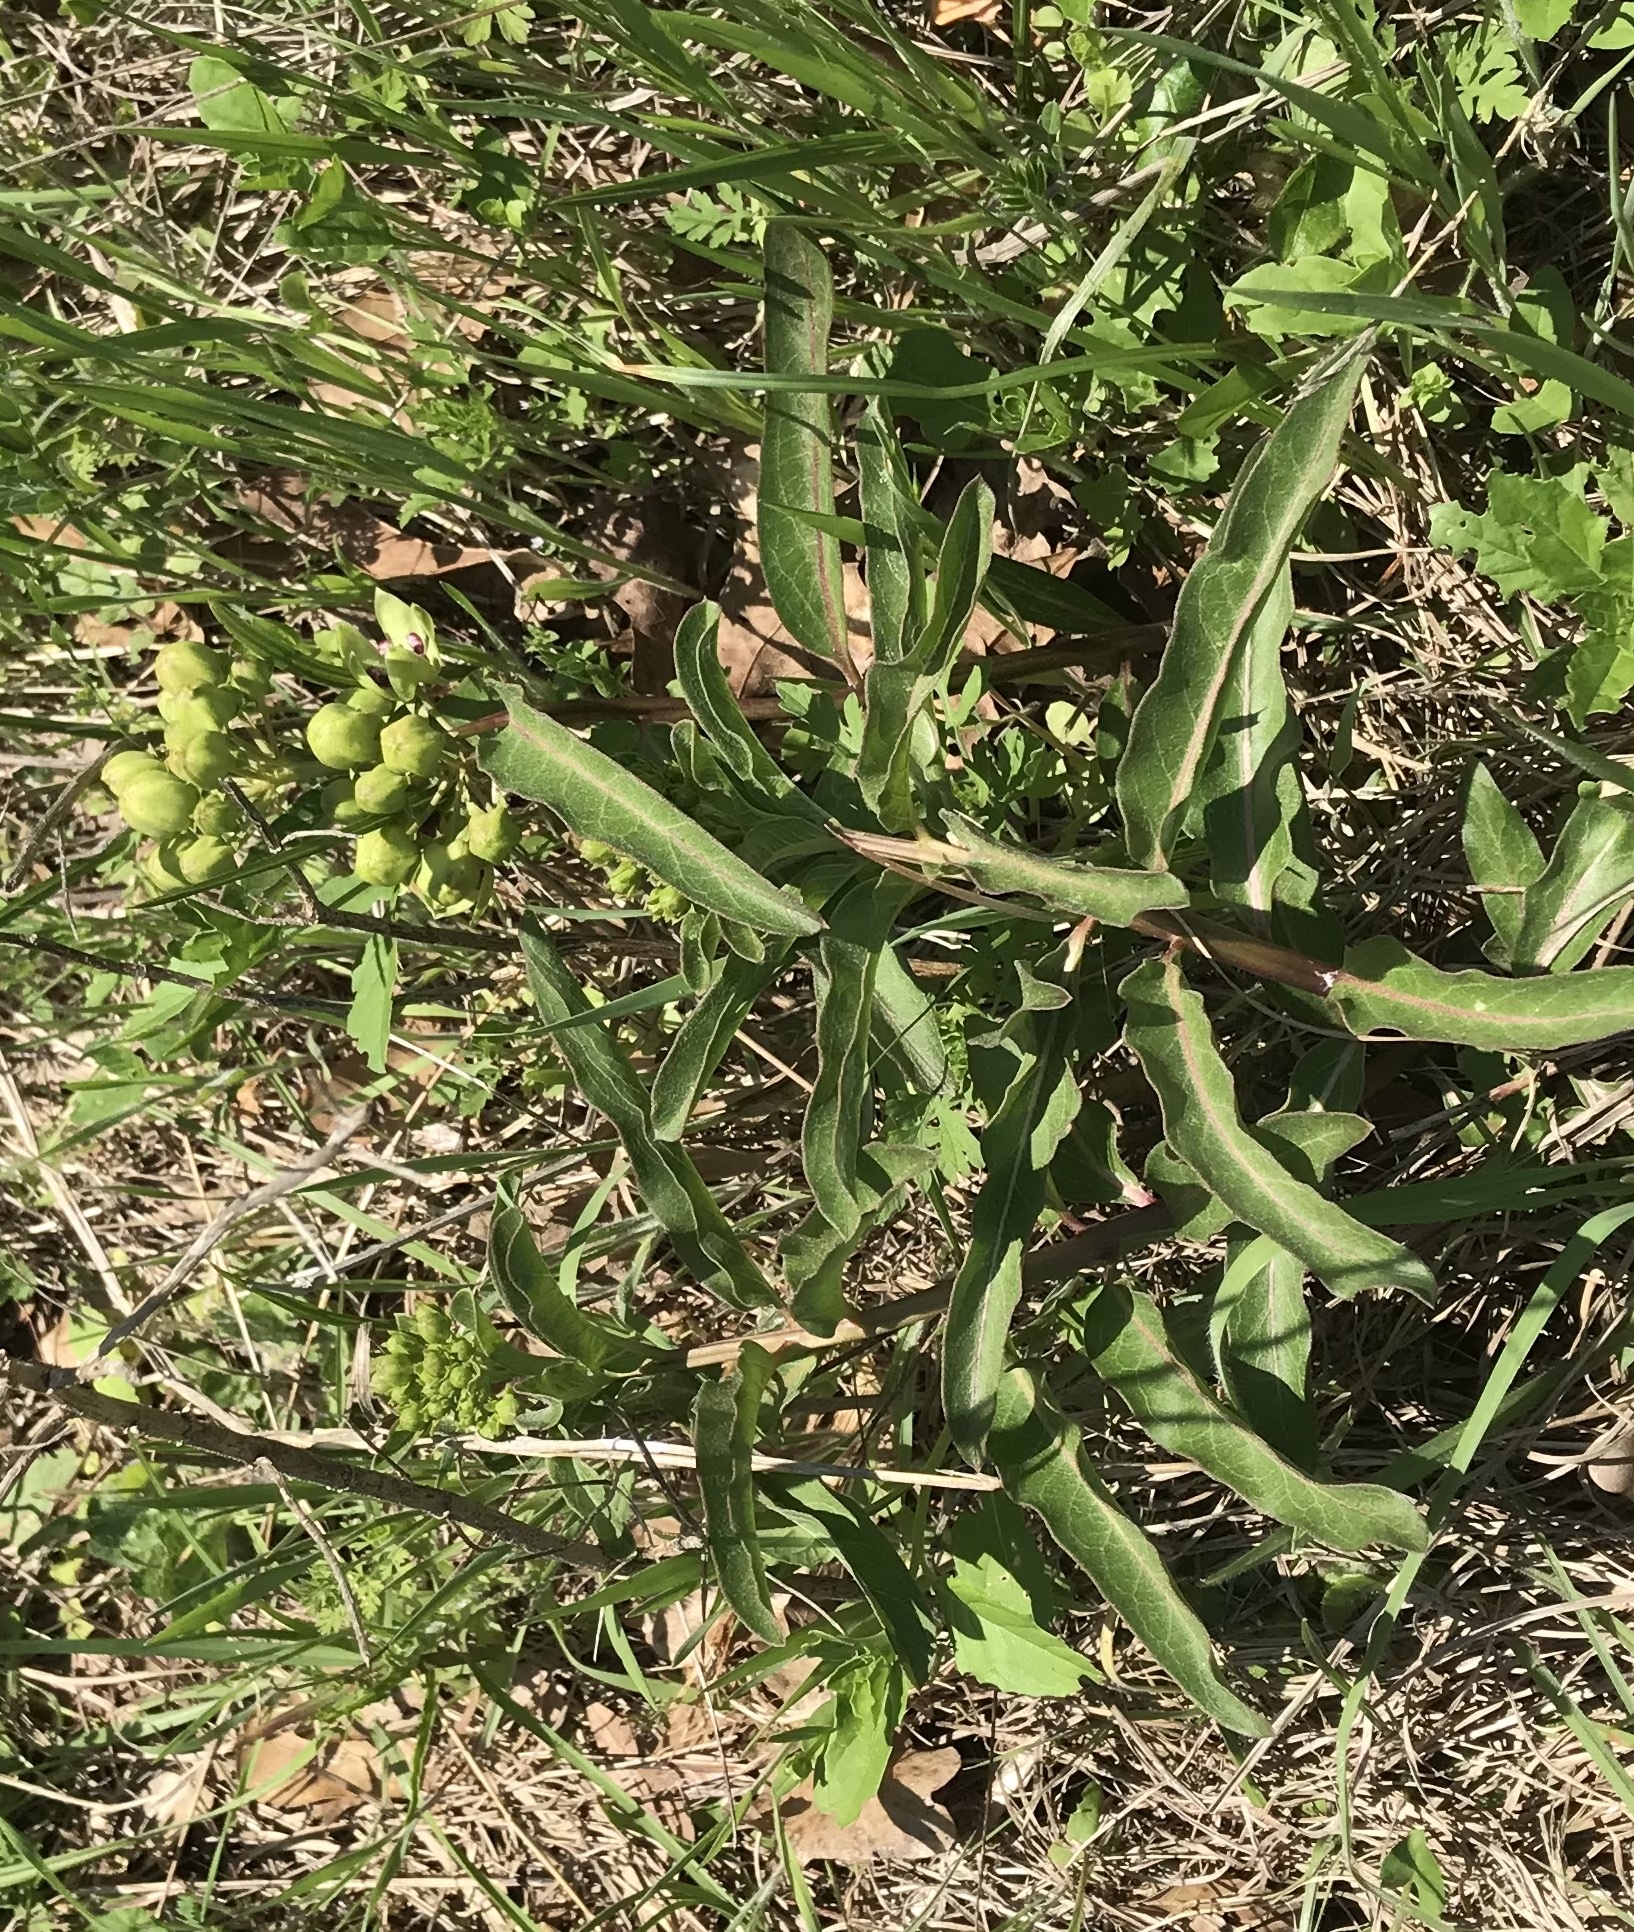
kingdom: Plantae
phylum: Tracheophyta
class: Magnoliopsida
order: Gentianales
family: Apocynaceae
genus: Asclepias
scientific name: Asclepias viridis
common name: Antelope-horns
